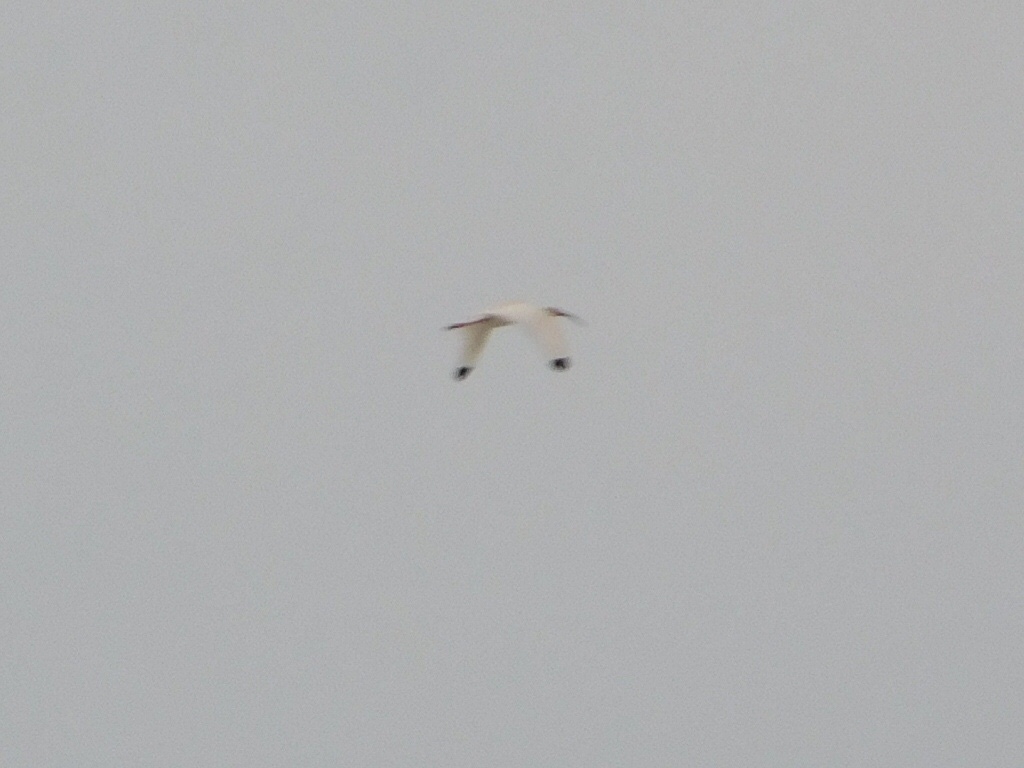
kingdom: Animalia
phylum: Chordata
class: Aves
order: Pelecaniformes
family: Threskiornithidae
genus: Eudocimus
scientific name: Eudocimus albus
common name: White ibis
